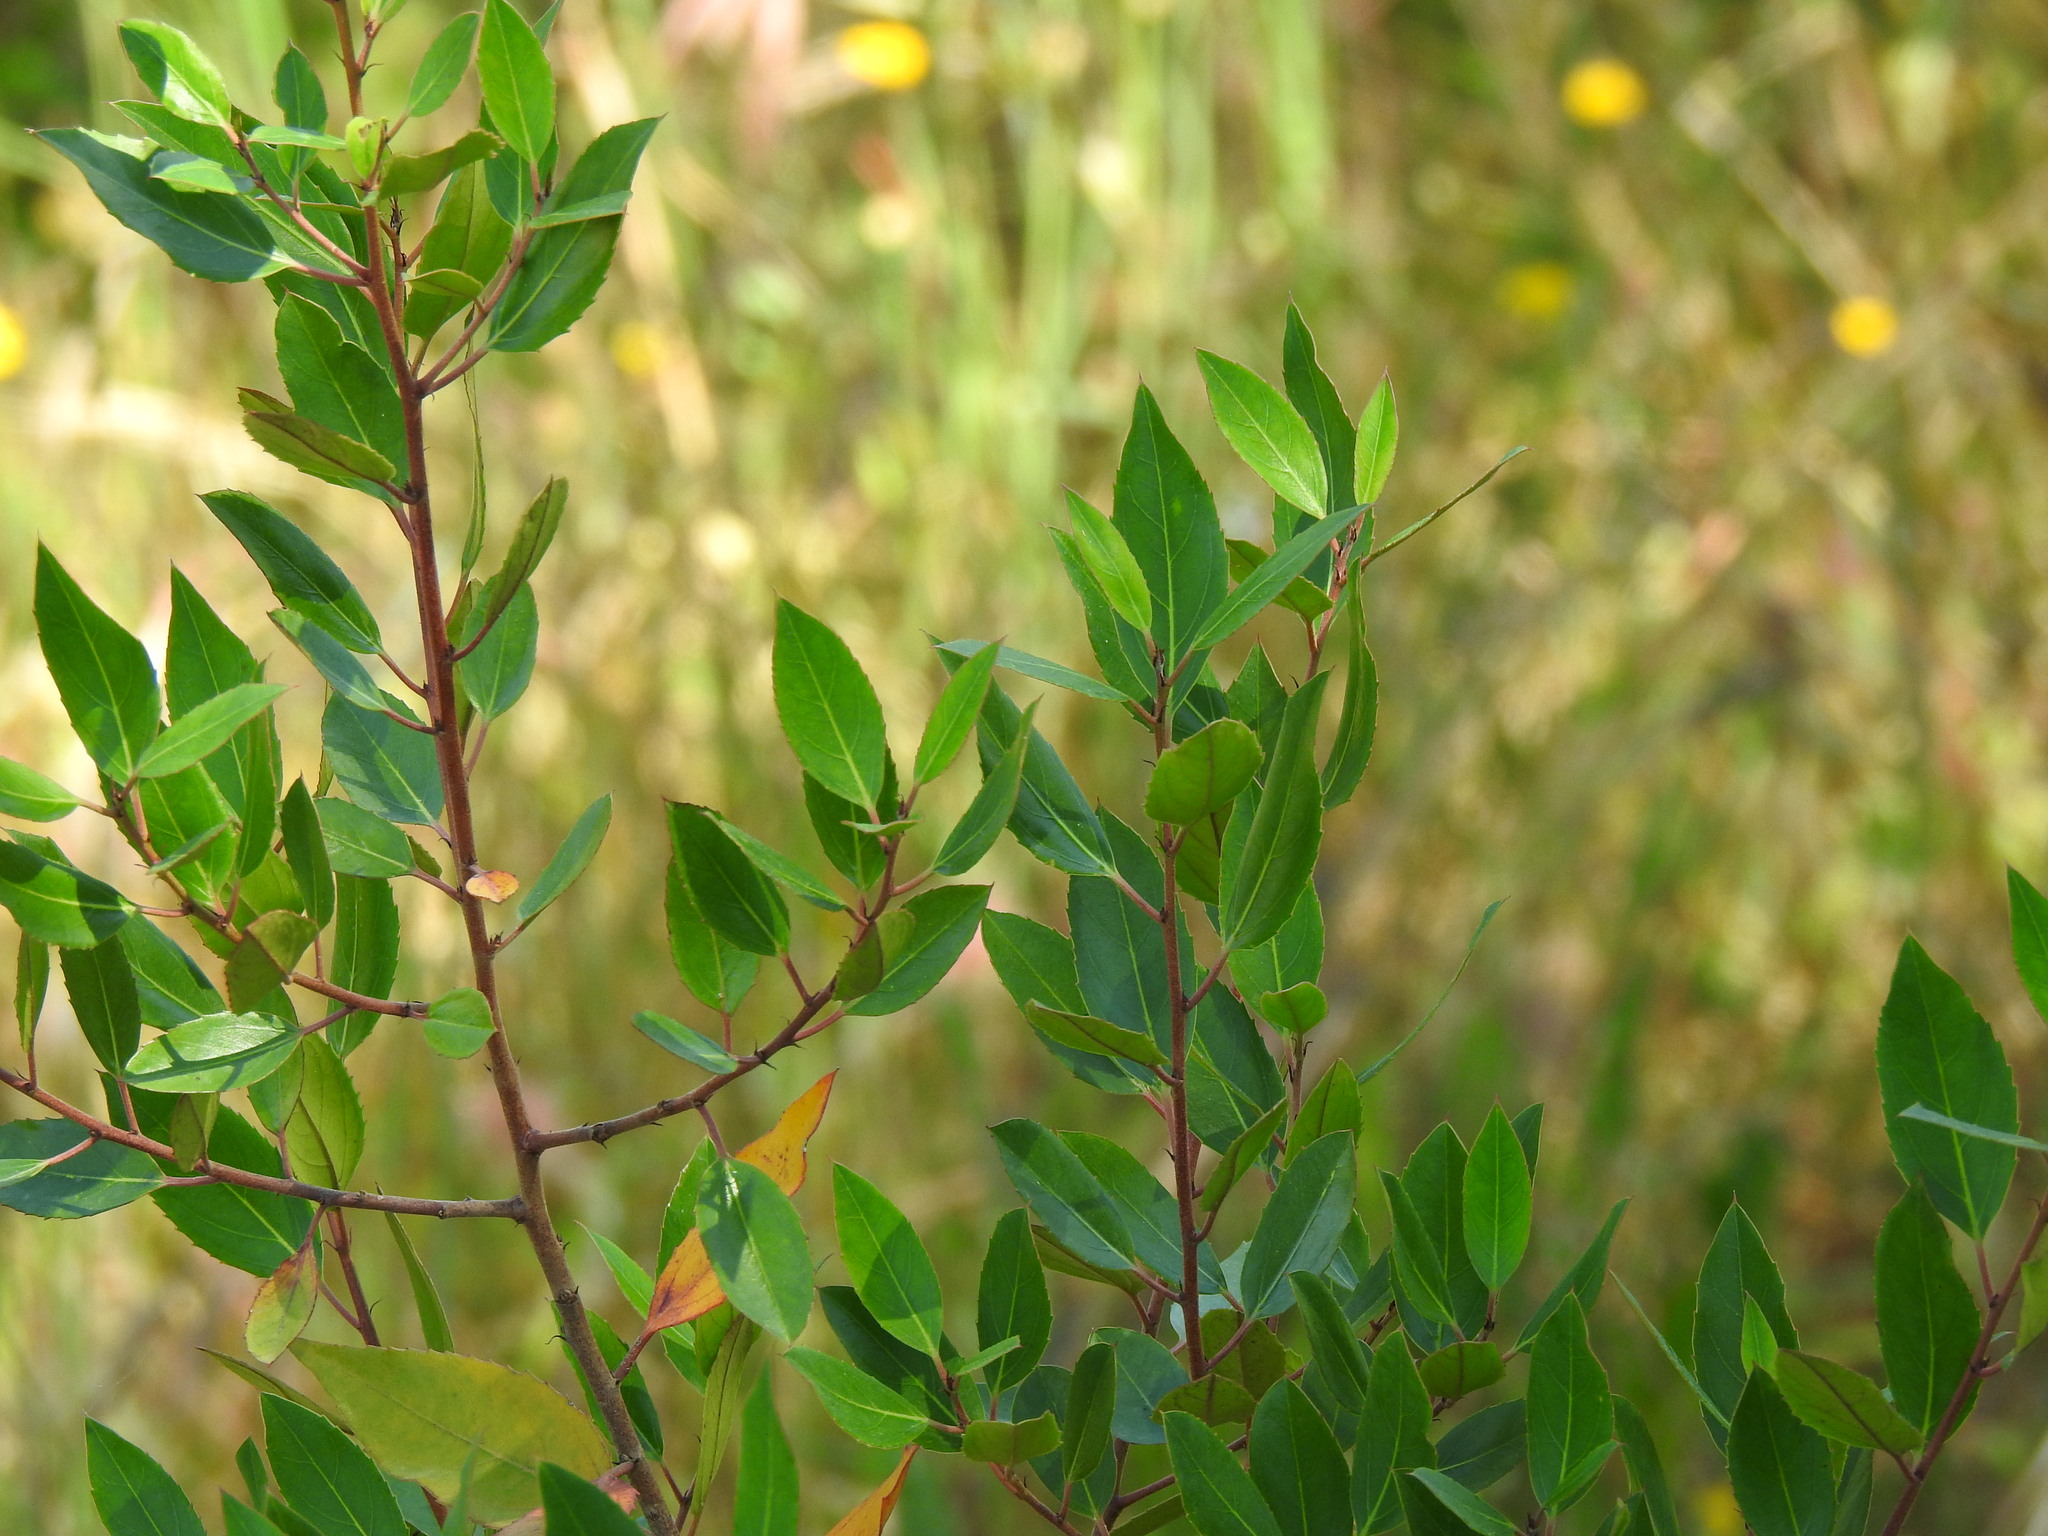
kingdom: Plantae
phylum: Tracheophyta
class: Magnoliopsida
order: Rosales
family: Rhamnaceae
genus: Rhamnus
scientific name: Rhamnus alaternus
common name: Mediterranean buckthorn
